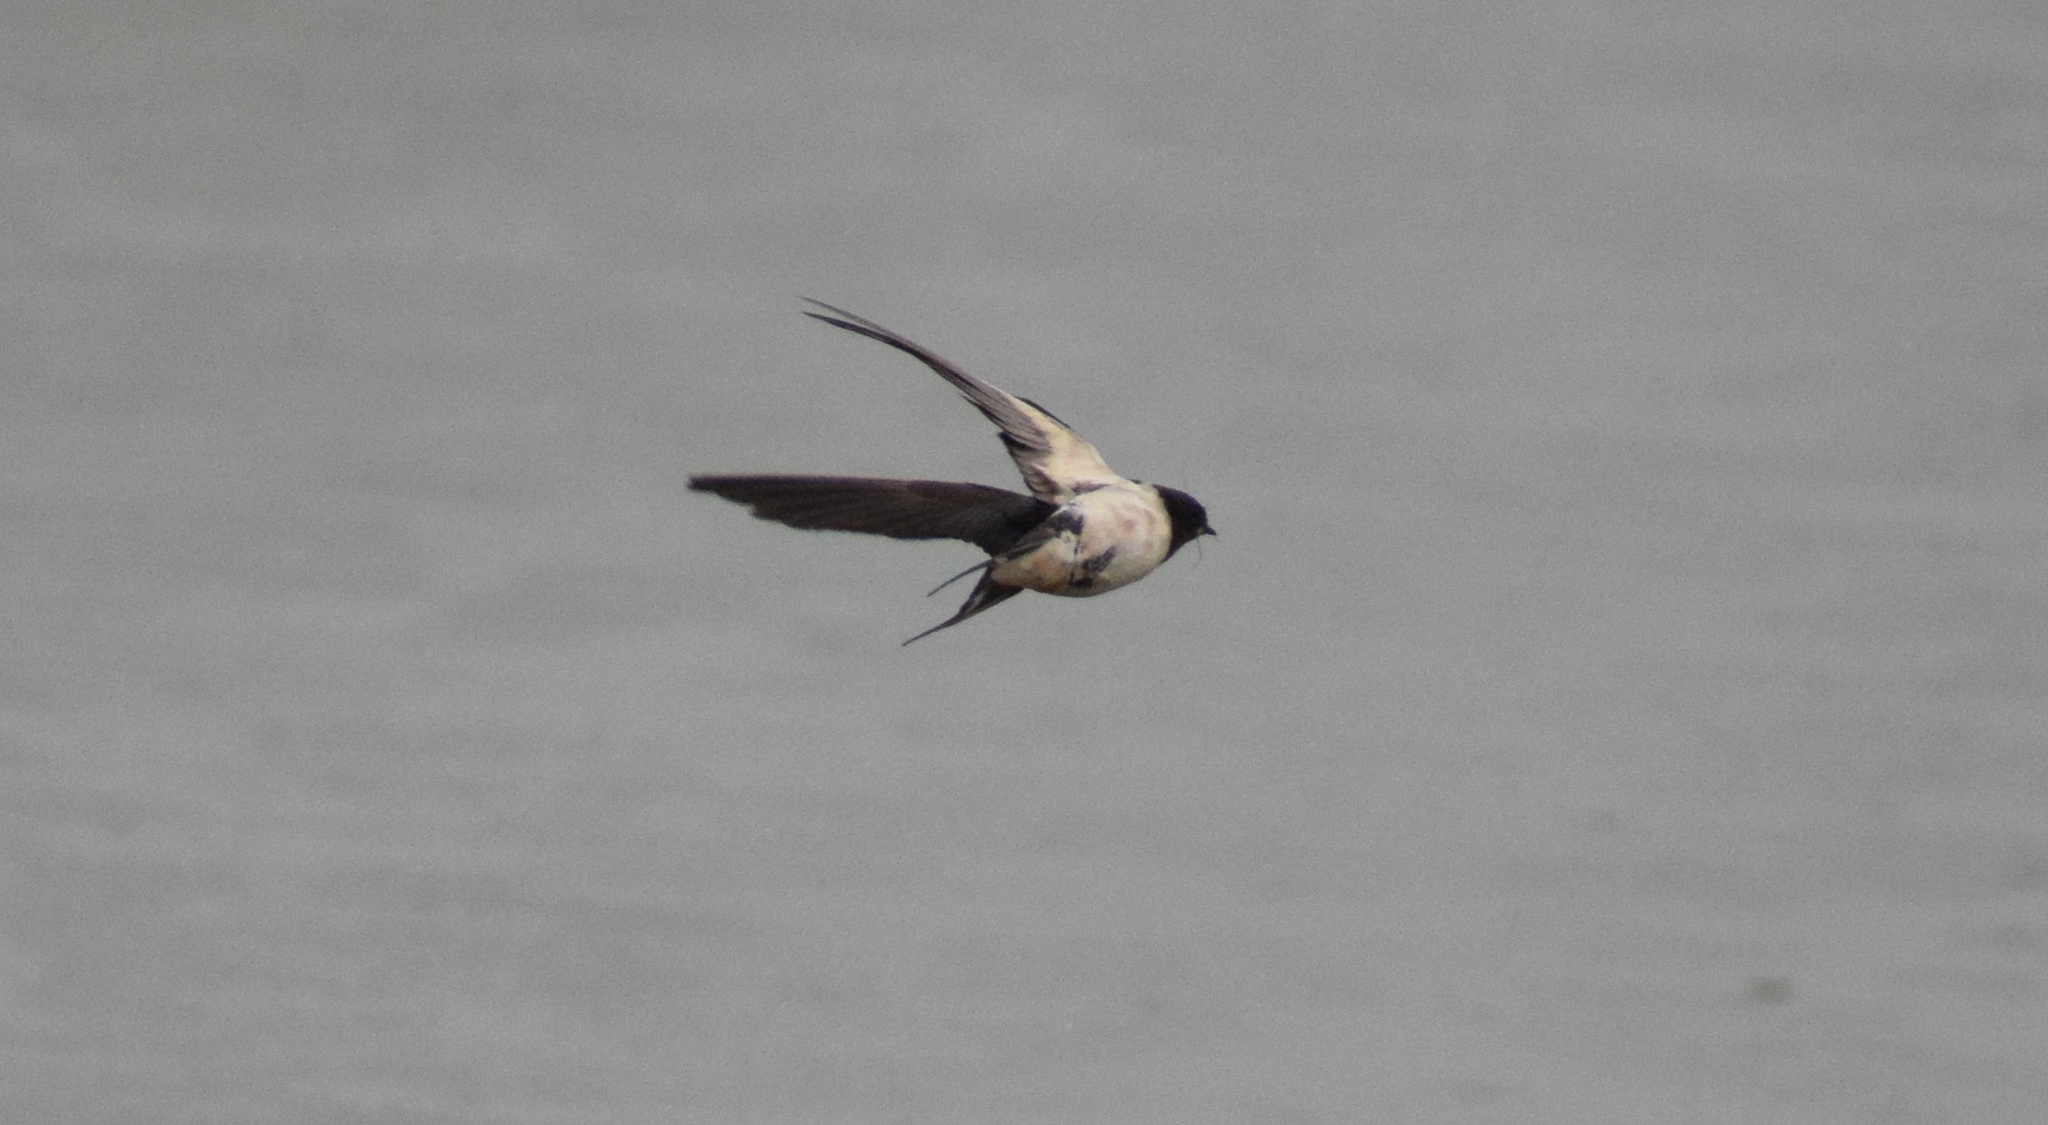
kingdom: Animalia
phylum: Chordata
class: Aves
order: Passeriformes
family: Hirundinidae
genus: Hirundo
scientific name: Hirundo rustica
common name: Barn swallow
